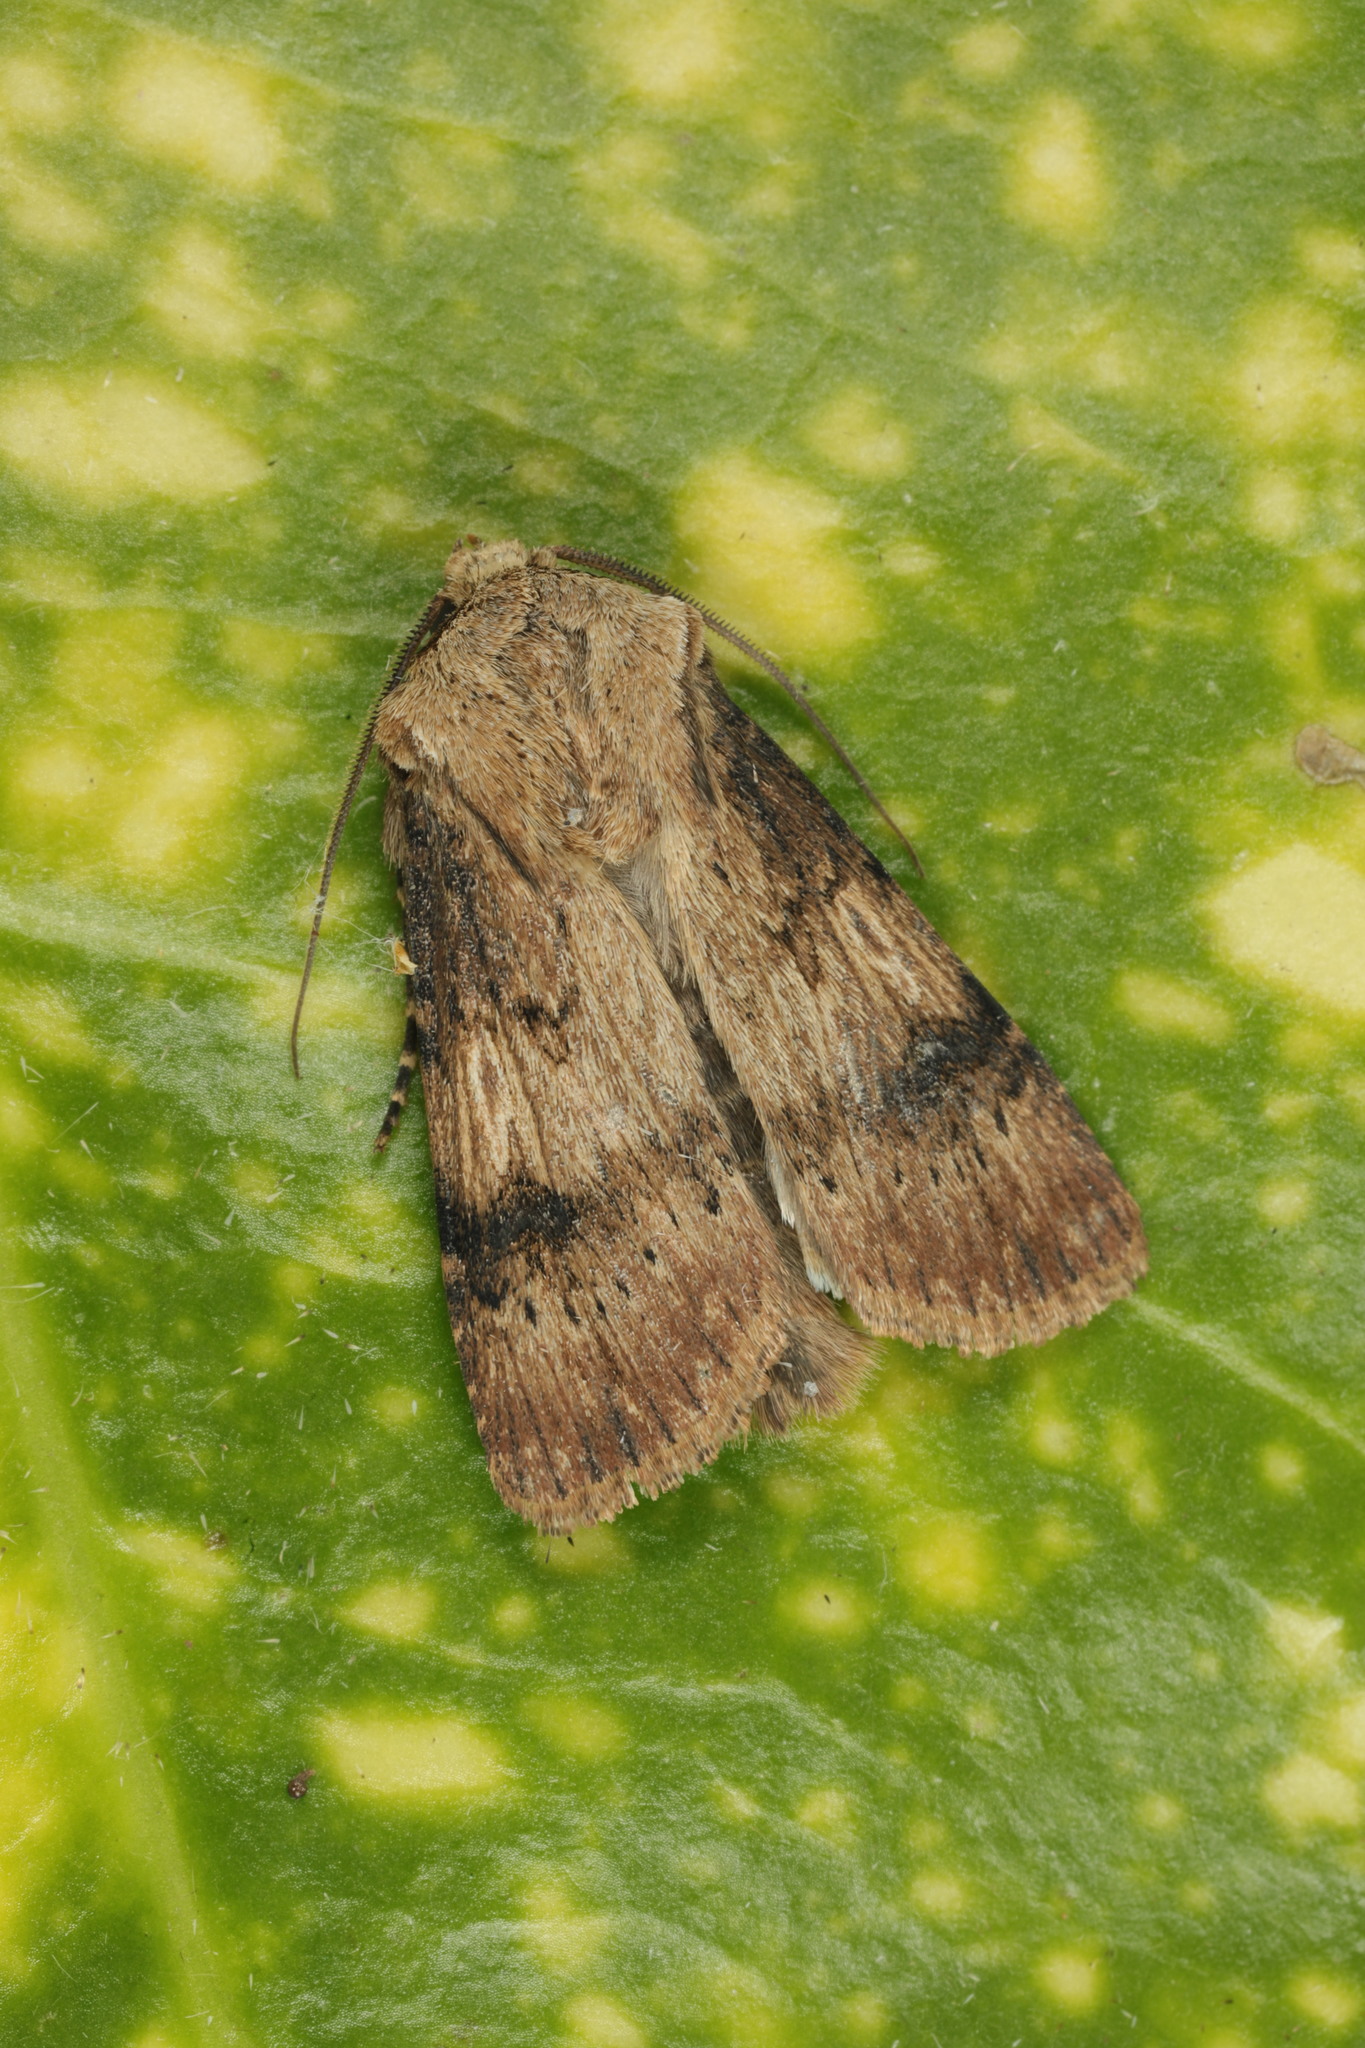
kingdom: Animalia
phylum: Arthropoda
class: Insecta
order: Lepidoptera
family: Noctuidae
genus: Agrotis
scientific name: Agrotis puta
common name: Shuttle-shaped dart
